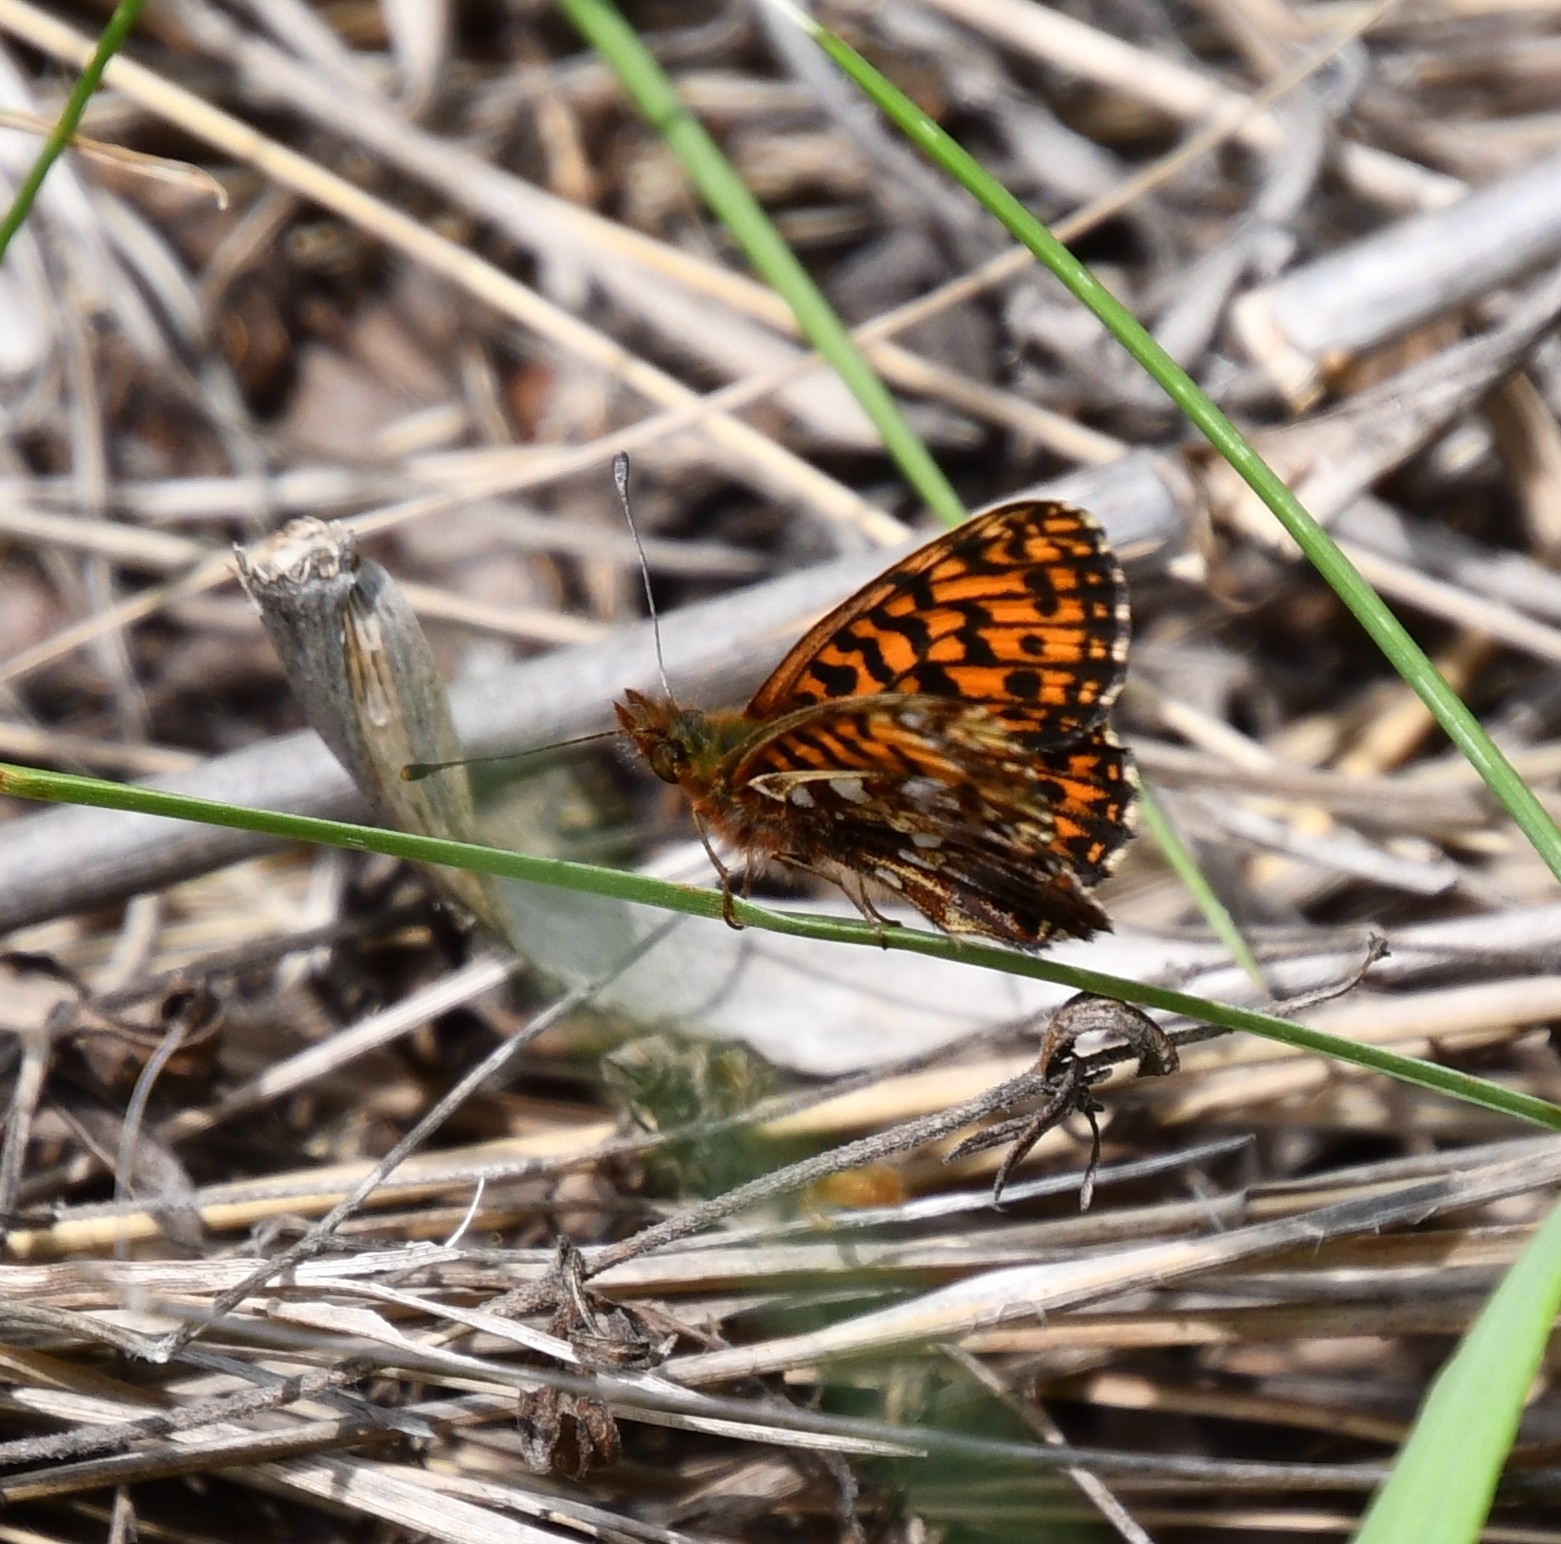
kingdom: Animalia
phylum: Arthropoda
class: Insecta
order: Lepidoptera
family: Nymphalidae
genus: Boloria
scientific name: Boloria dia
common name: Weaver's fritillary
